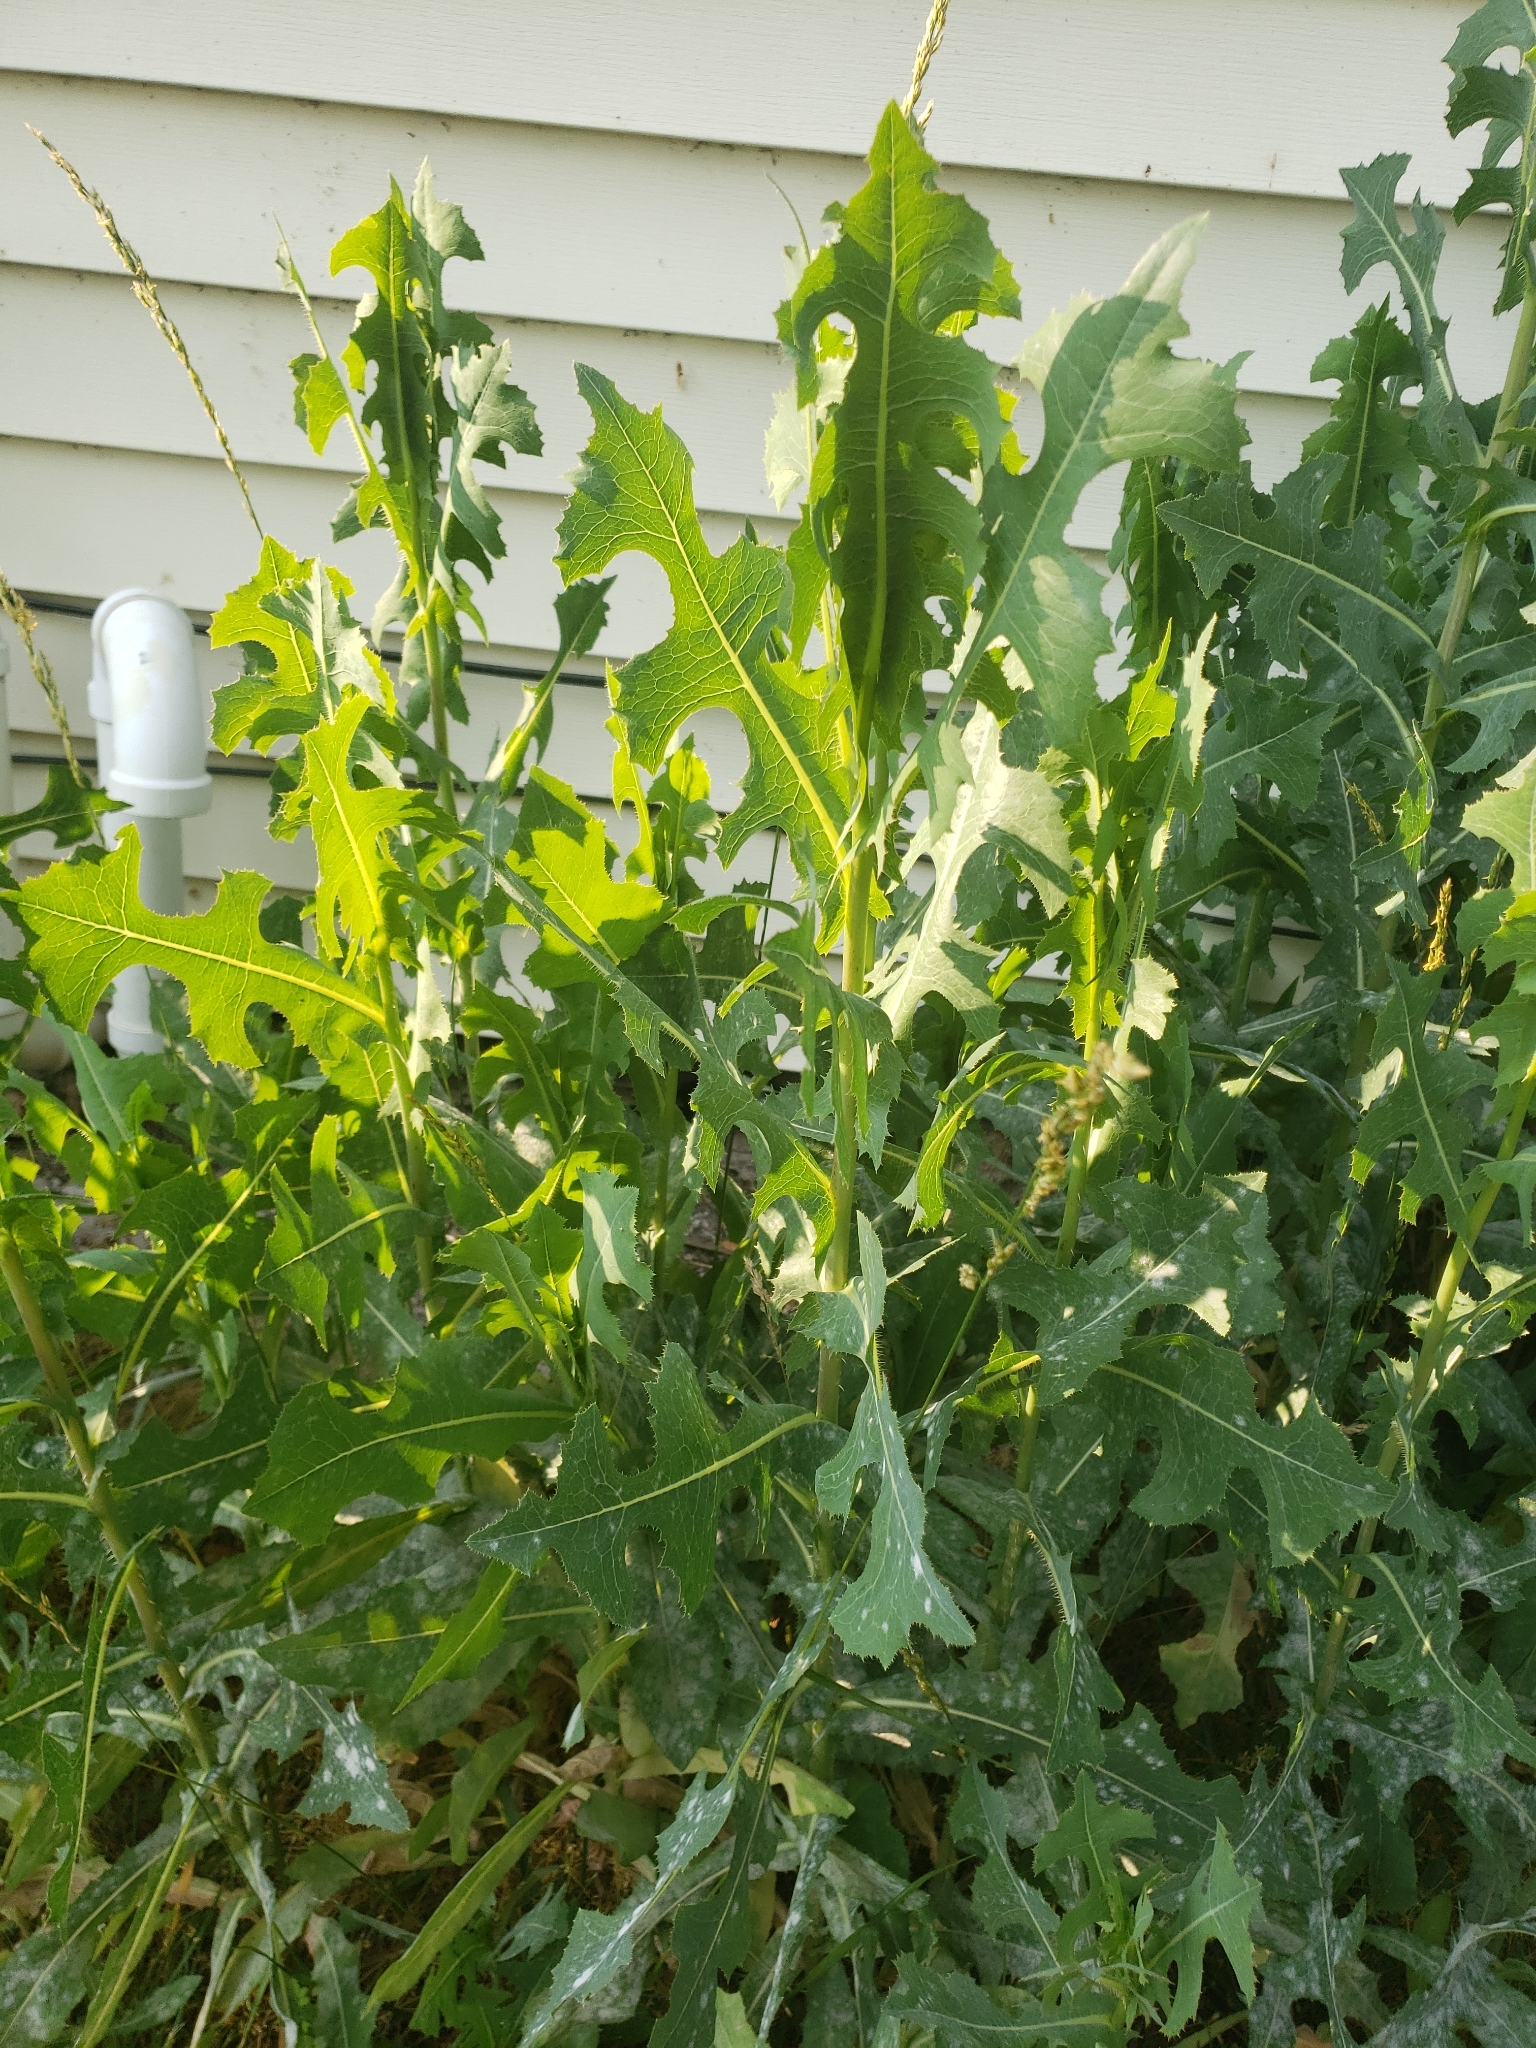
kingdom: Plantae
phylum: Tracheophyta
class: Magnoliopsida
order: Asterales
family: Asteraceae
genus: Lactuca
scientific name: Lactuca serriola
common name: Prickly lettuce
